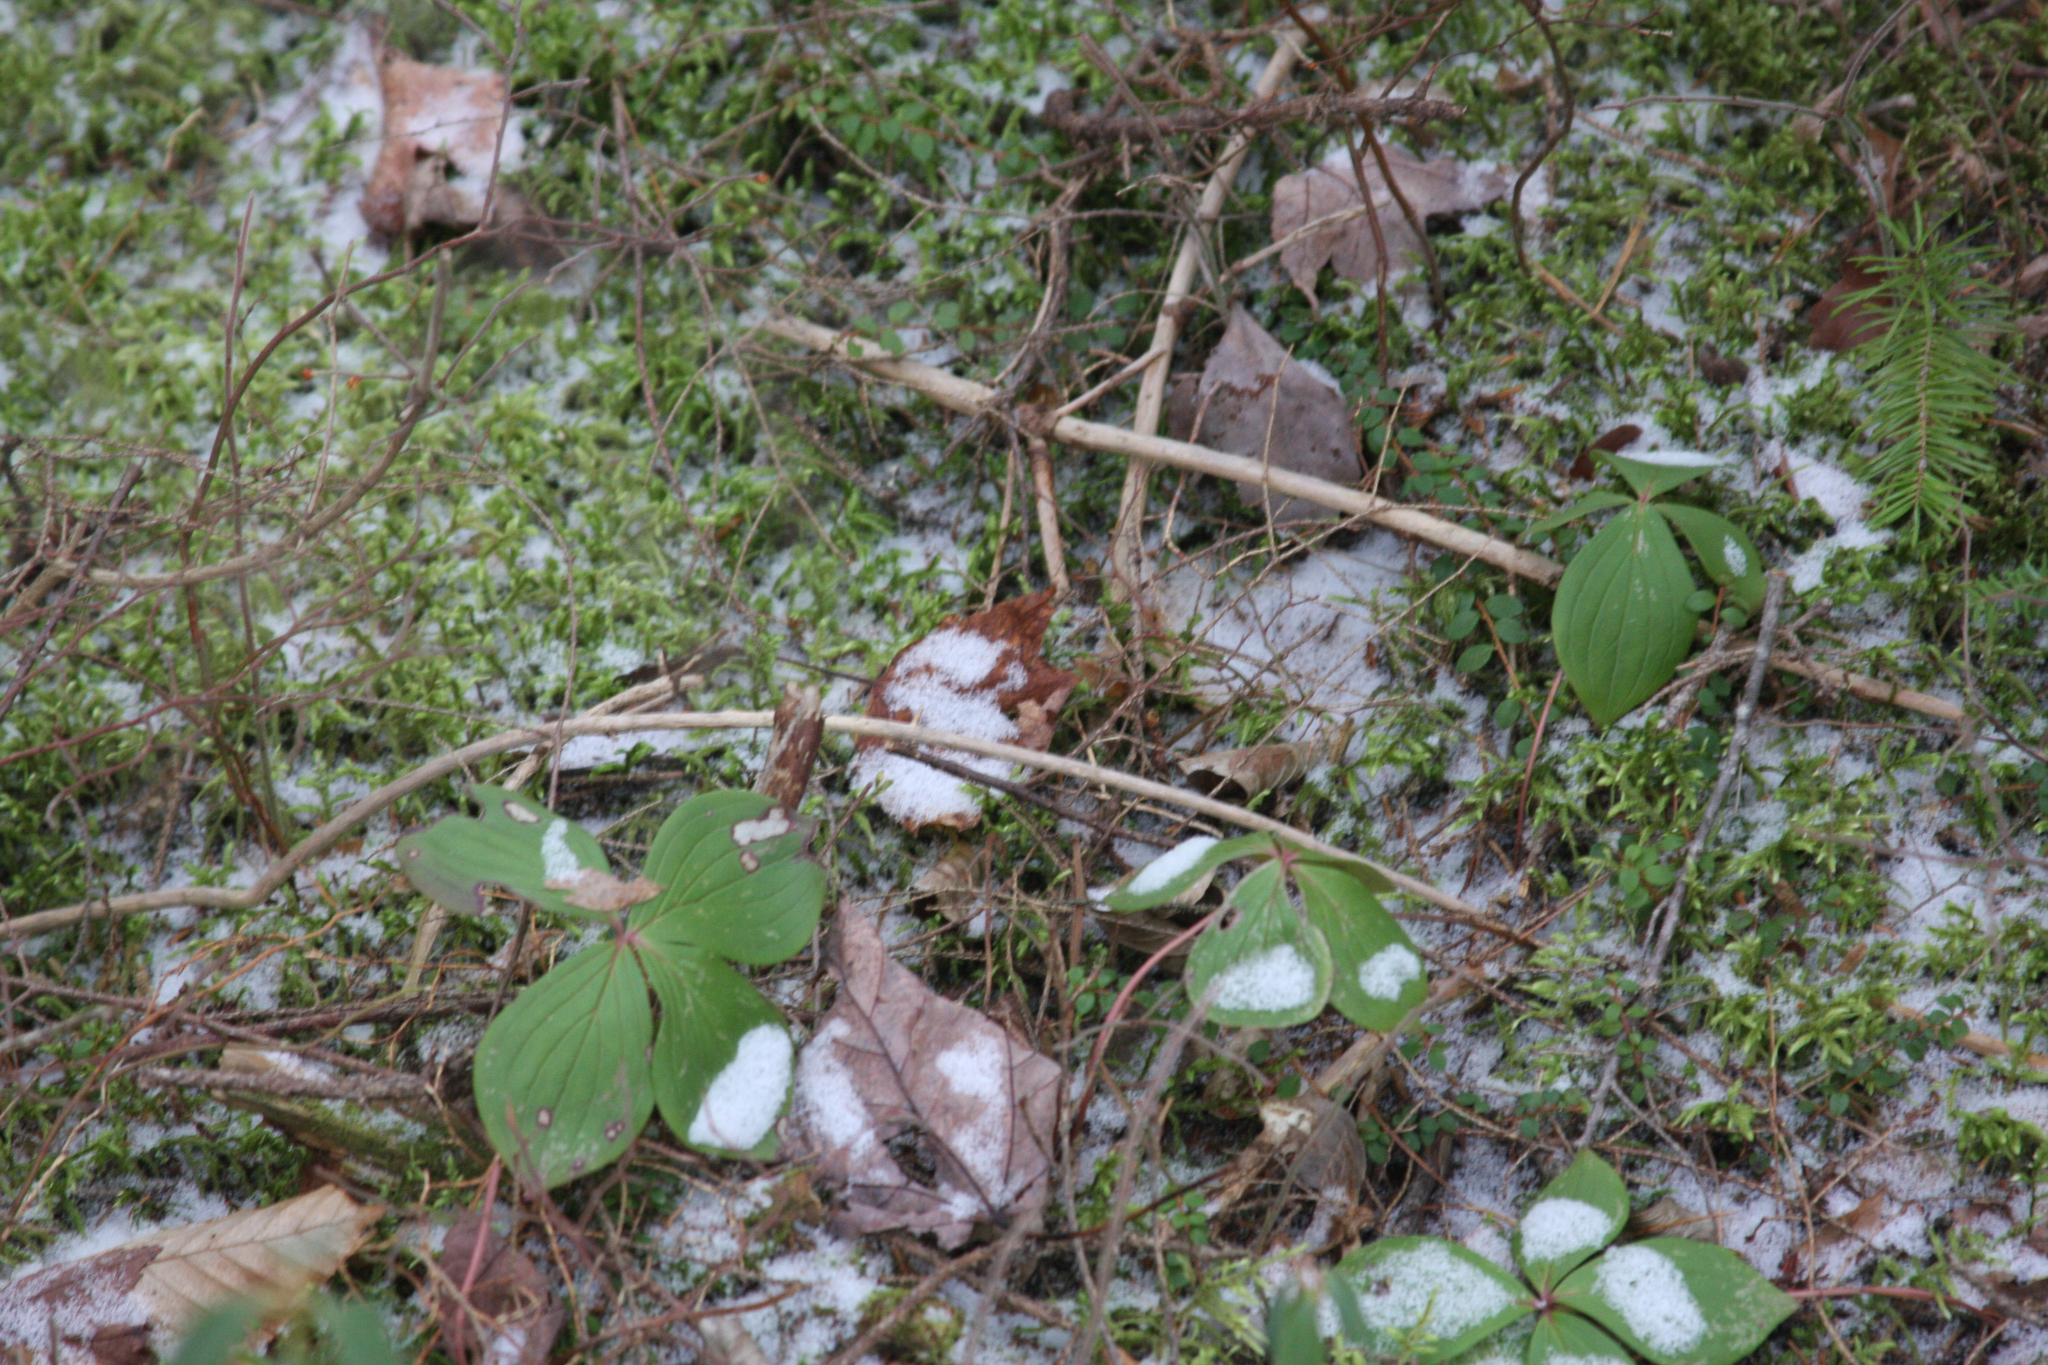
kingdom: Plantae
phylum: Tracheophyta
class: Magnoliopsida
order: Cornales
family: Cornaceae
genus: Cornus
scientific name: Cornus canadensis
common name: Creeping dogwood
